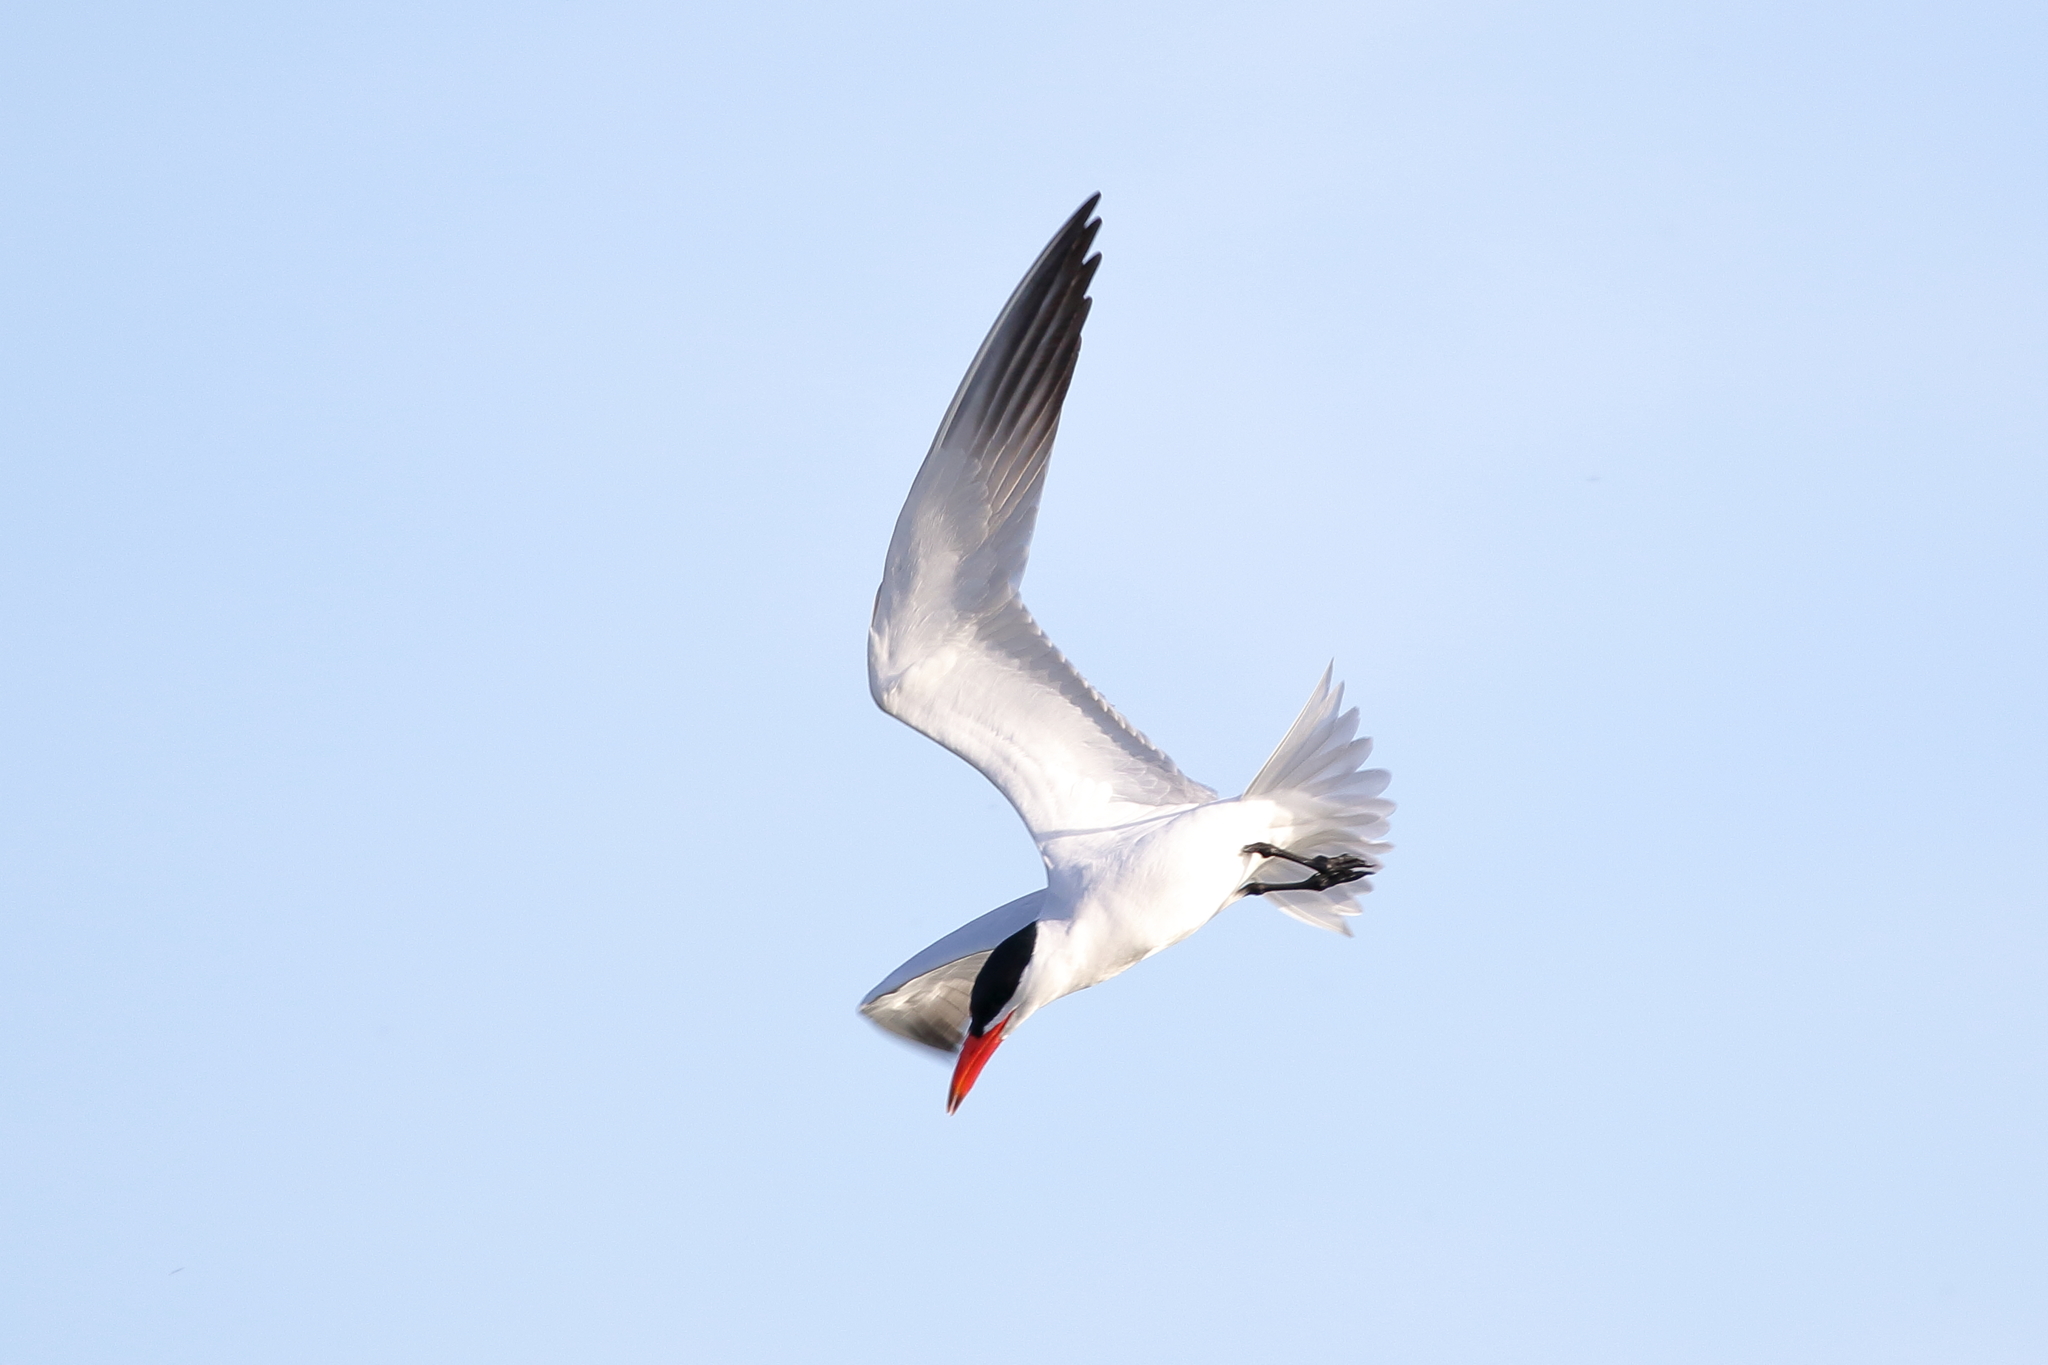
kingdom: Animalia
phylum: Chordata
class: Aves
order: Charadriiformes
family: Laridae
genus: Hydroprogne
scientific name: Hydroprogne caspia
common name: Caspian tern
